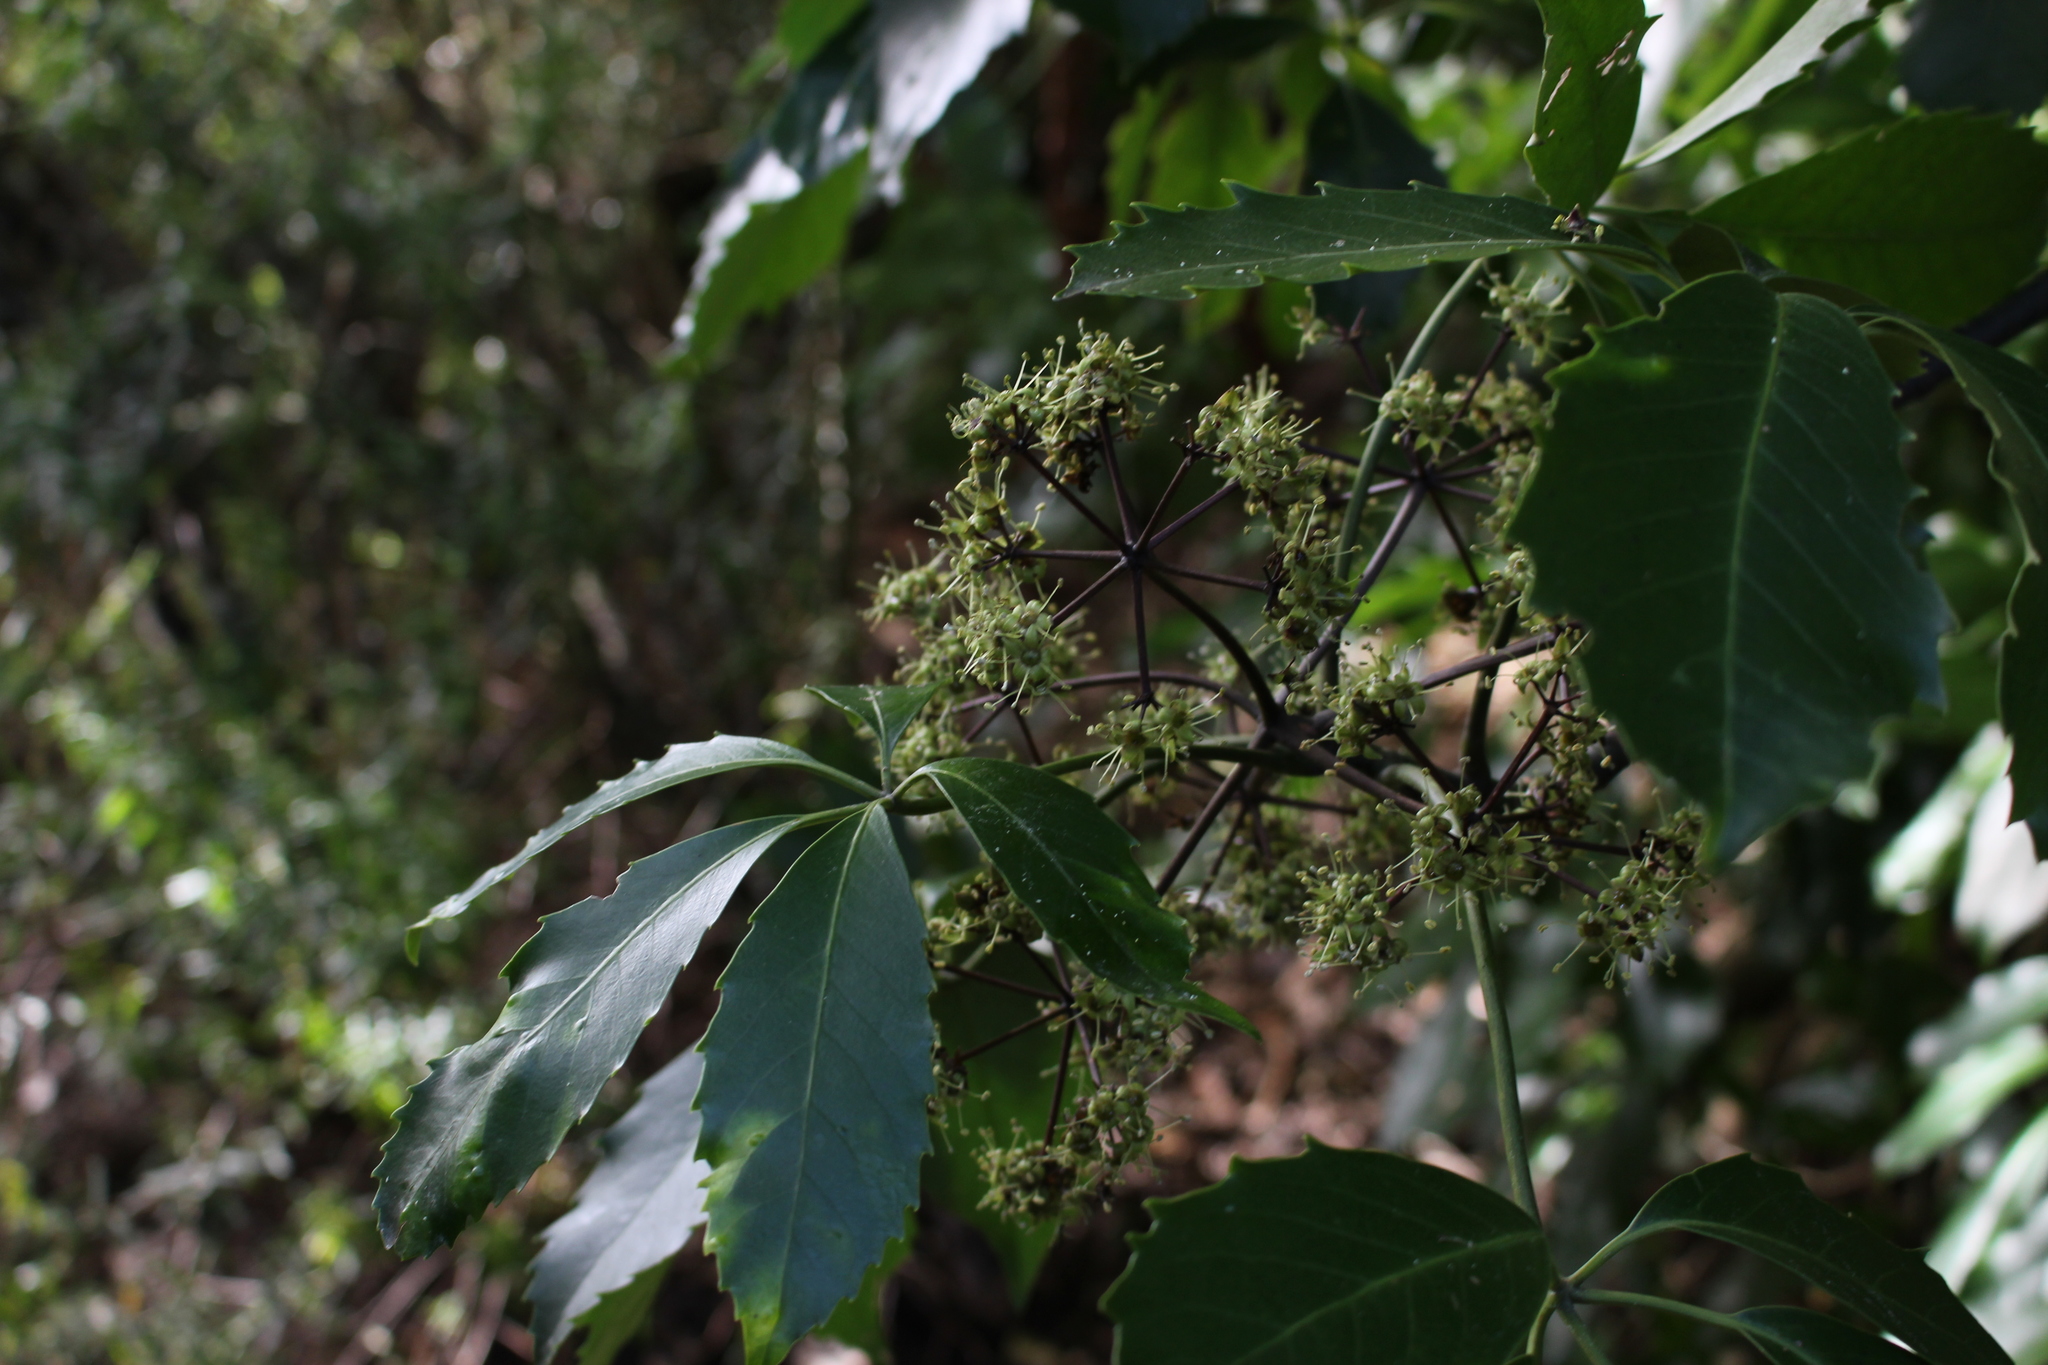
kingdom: Plantae
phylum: Tracheophyta
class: Magnoliopsida
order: Apiales
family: Araliaceae
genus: Neopanax
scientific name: Neopanax arboreus
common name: Five-fingers
